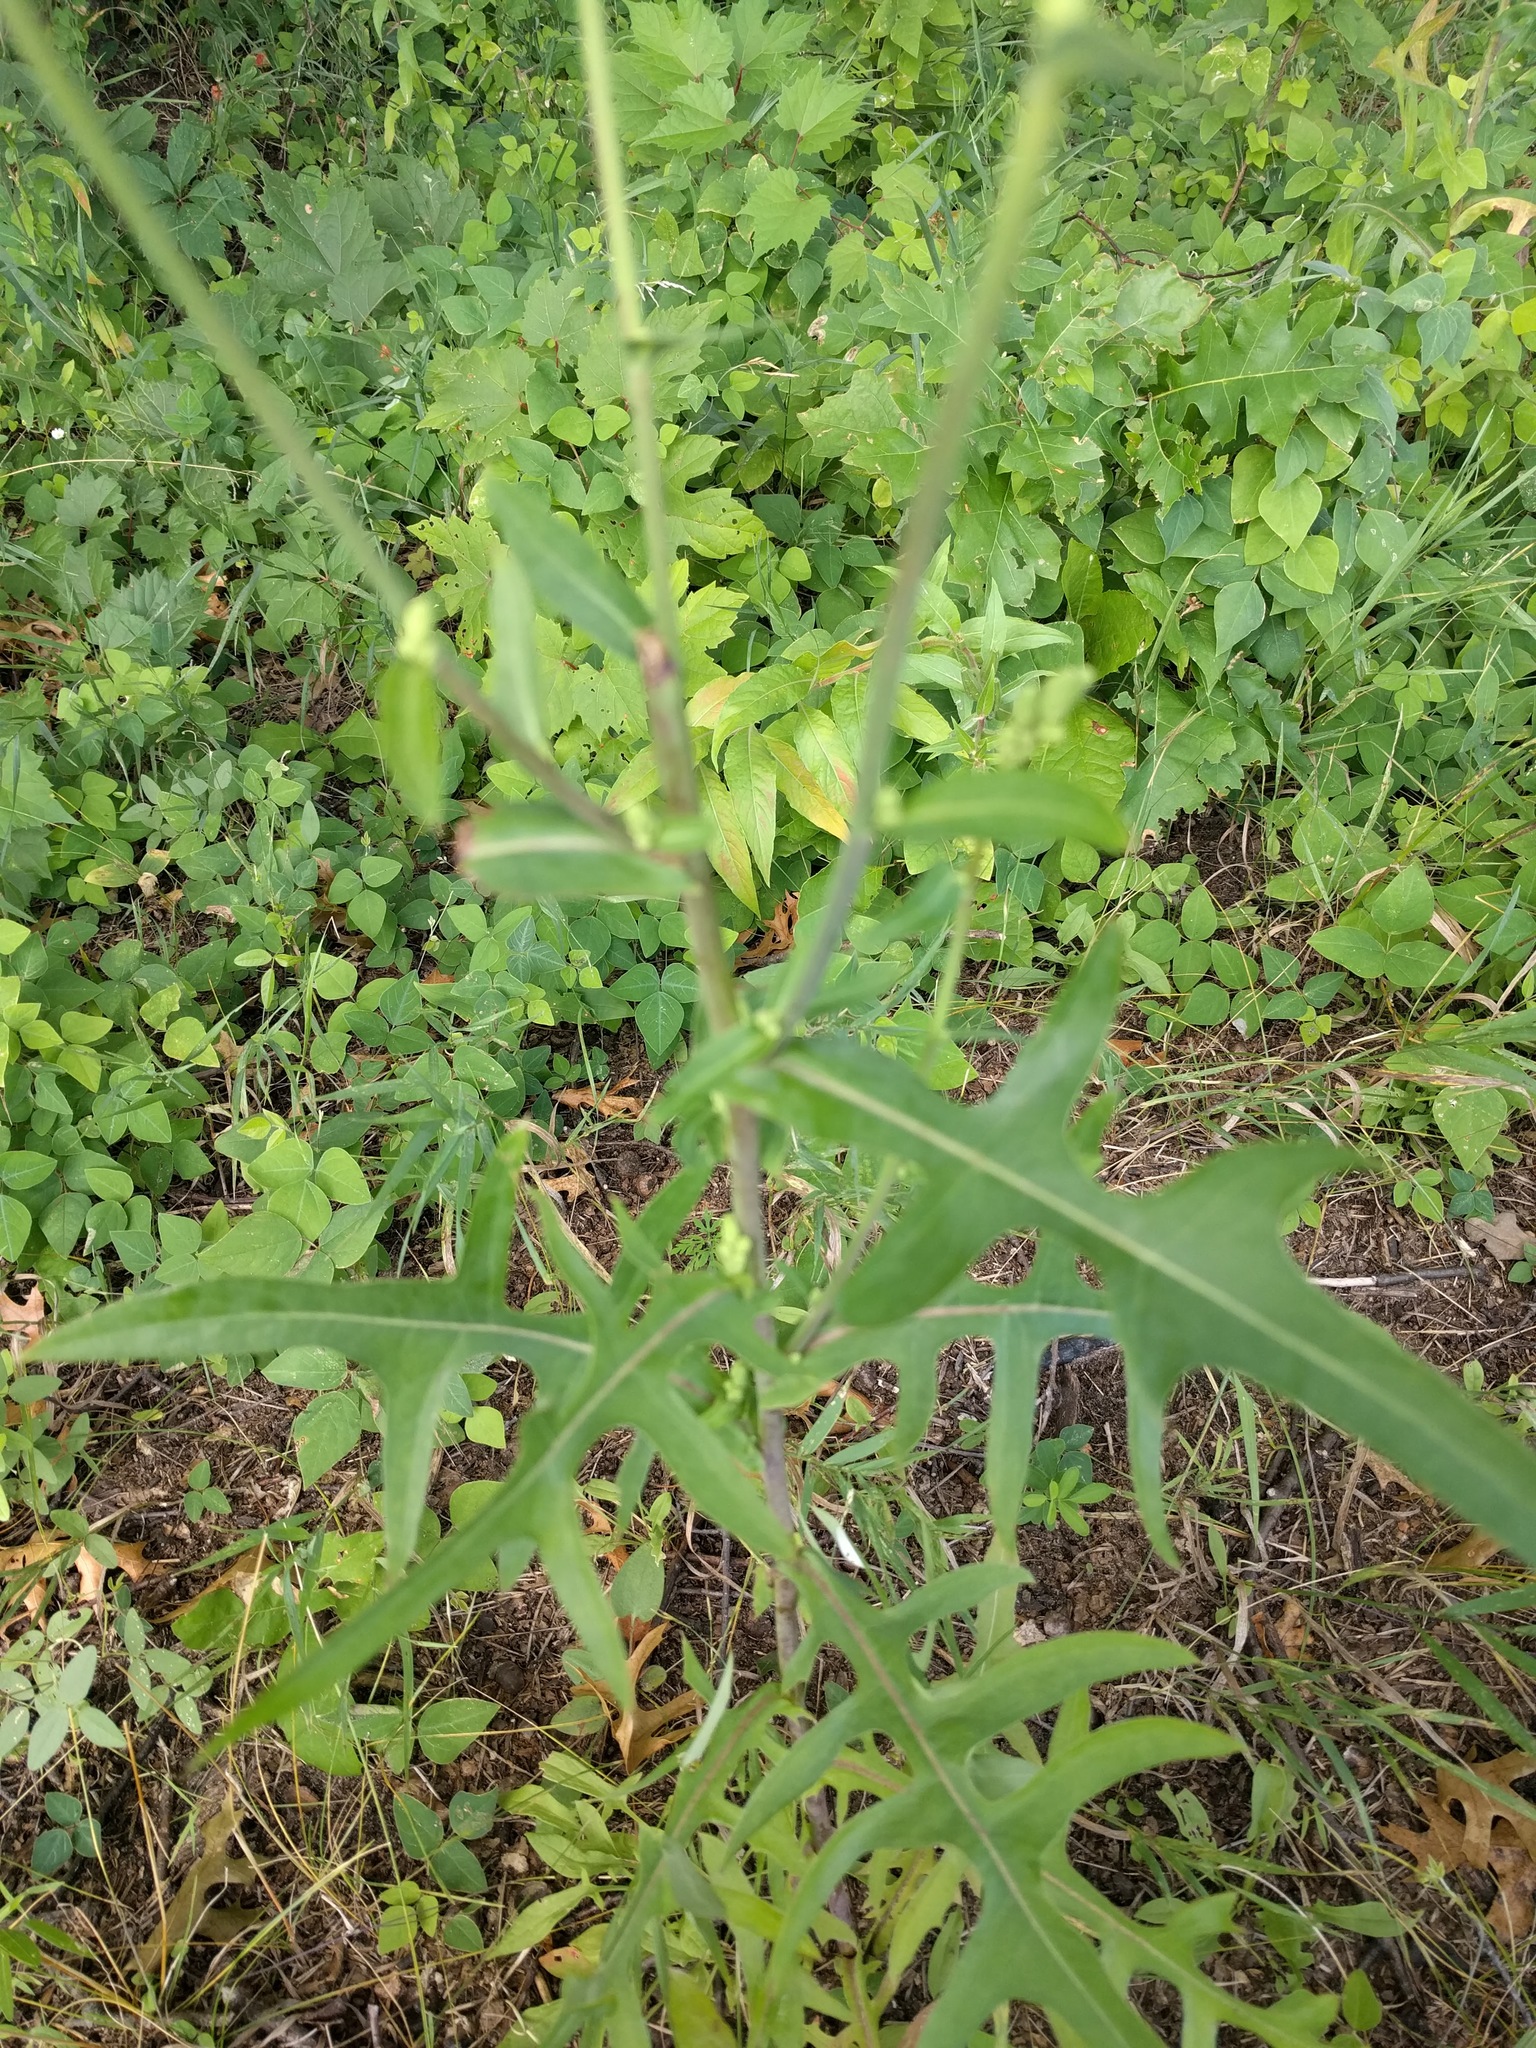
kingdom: Plantae
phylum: Tracheophyta
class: Magnoliopsida
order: Asterales
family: Asteraceae
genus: Lactuca
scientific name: Lactuca canadensis
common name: Canada lettuce
